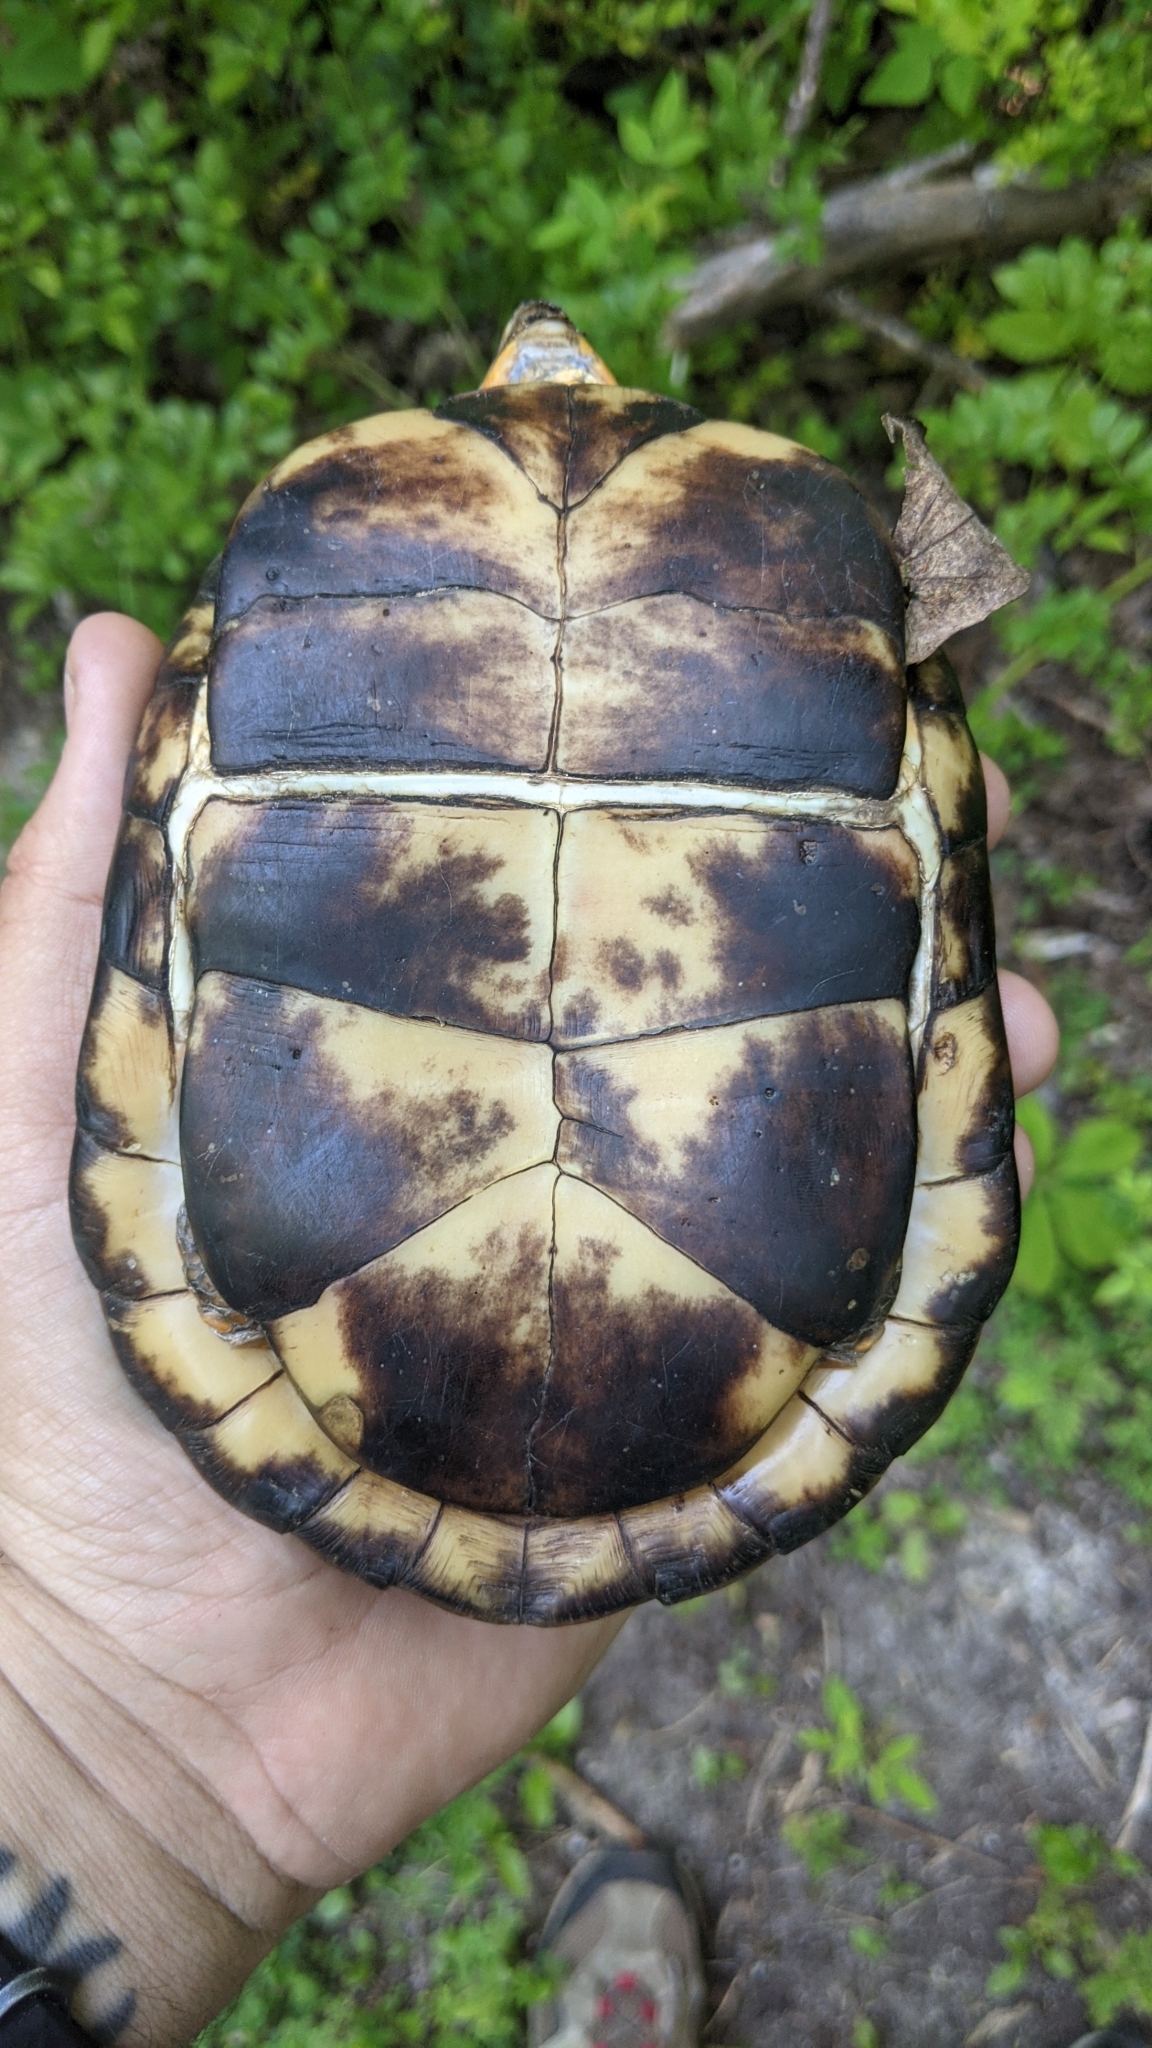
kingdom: Animalia
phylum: Chordata
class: Testudines
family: Emydidae
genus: Terrapene
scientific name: Terrapene carolina
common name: Common box turtle
